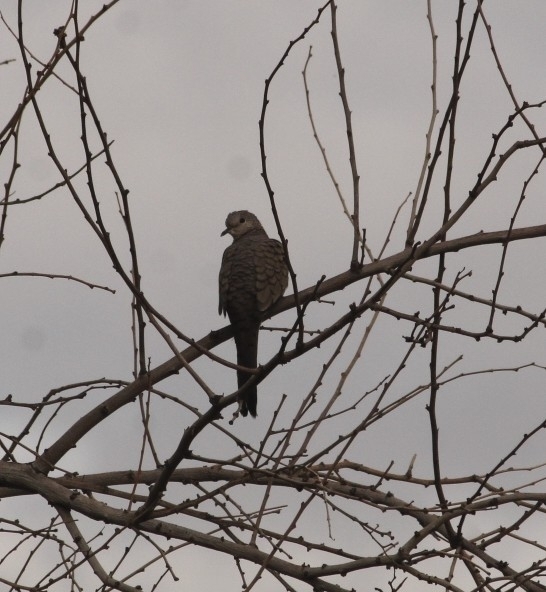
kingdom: Animalia
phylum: Chordata
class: Aves
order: Columbiformes
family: Columbidae
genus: Columbina
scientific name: Columbina inca
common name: Inca dove
